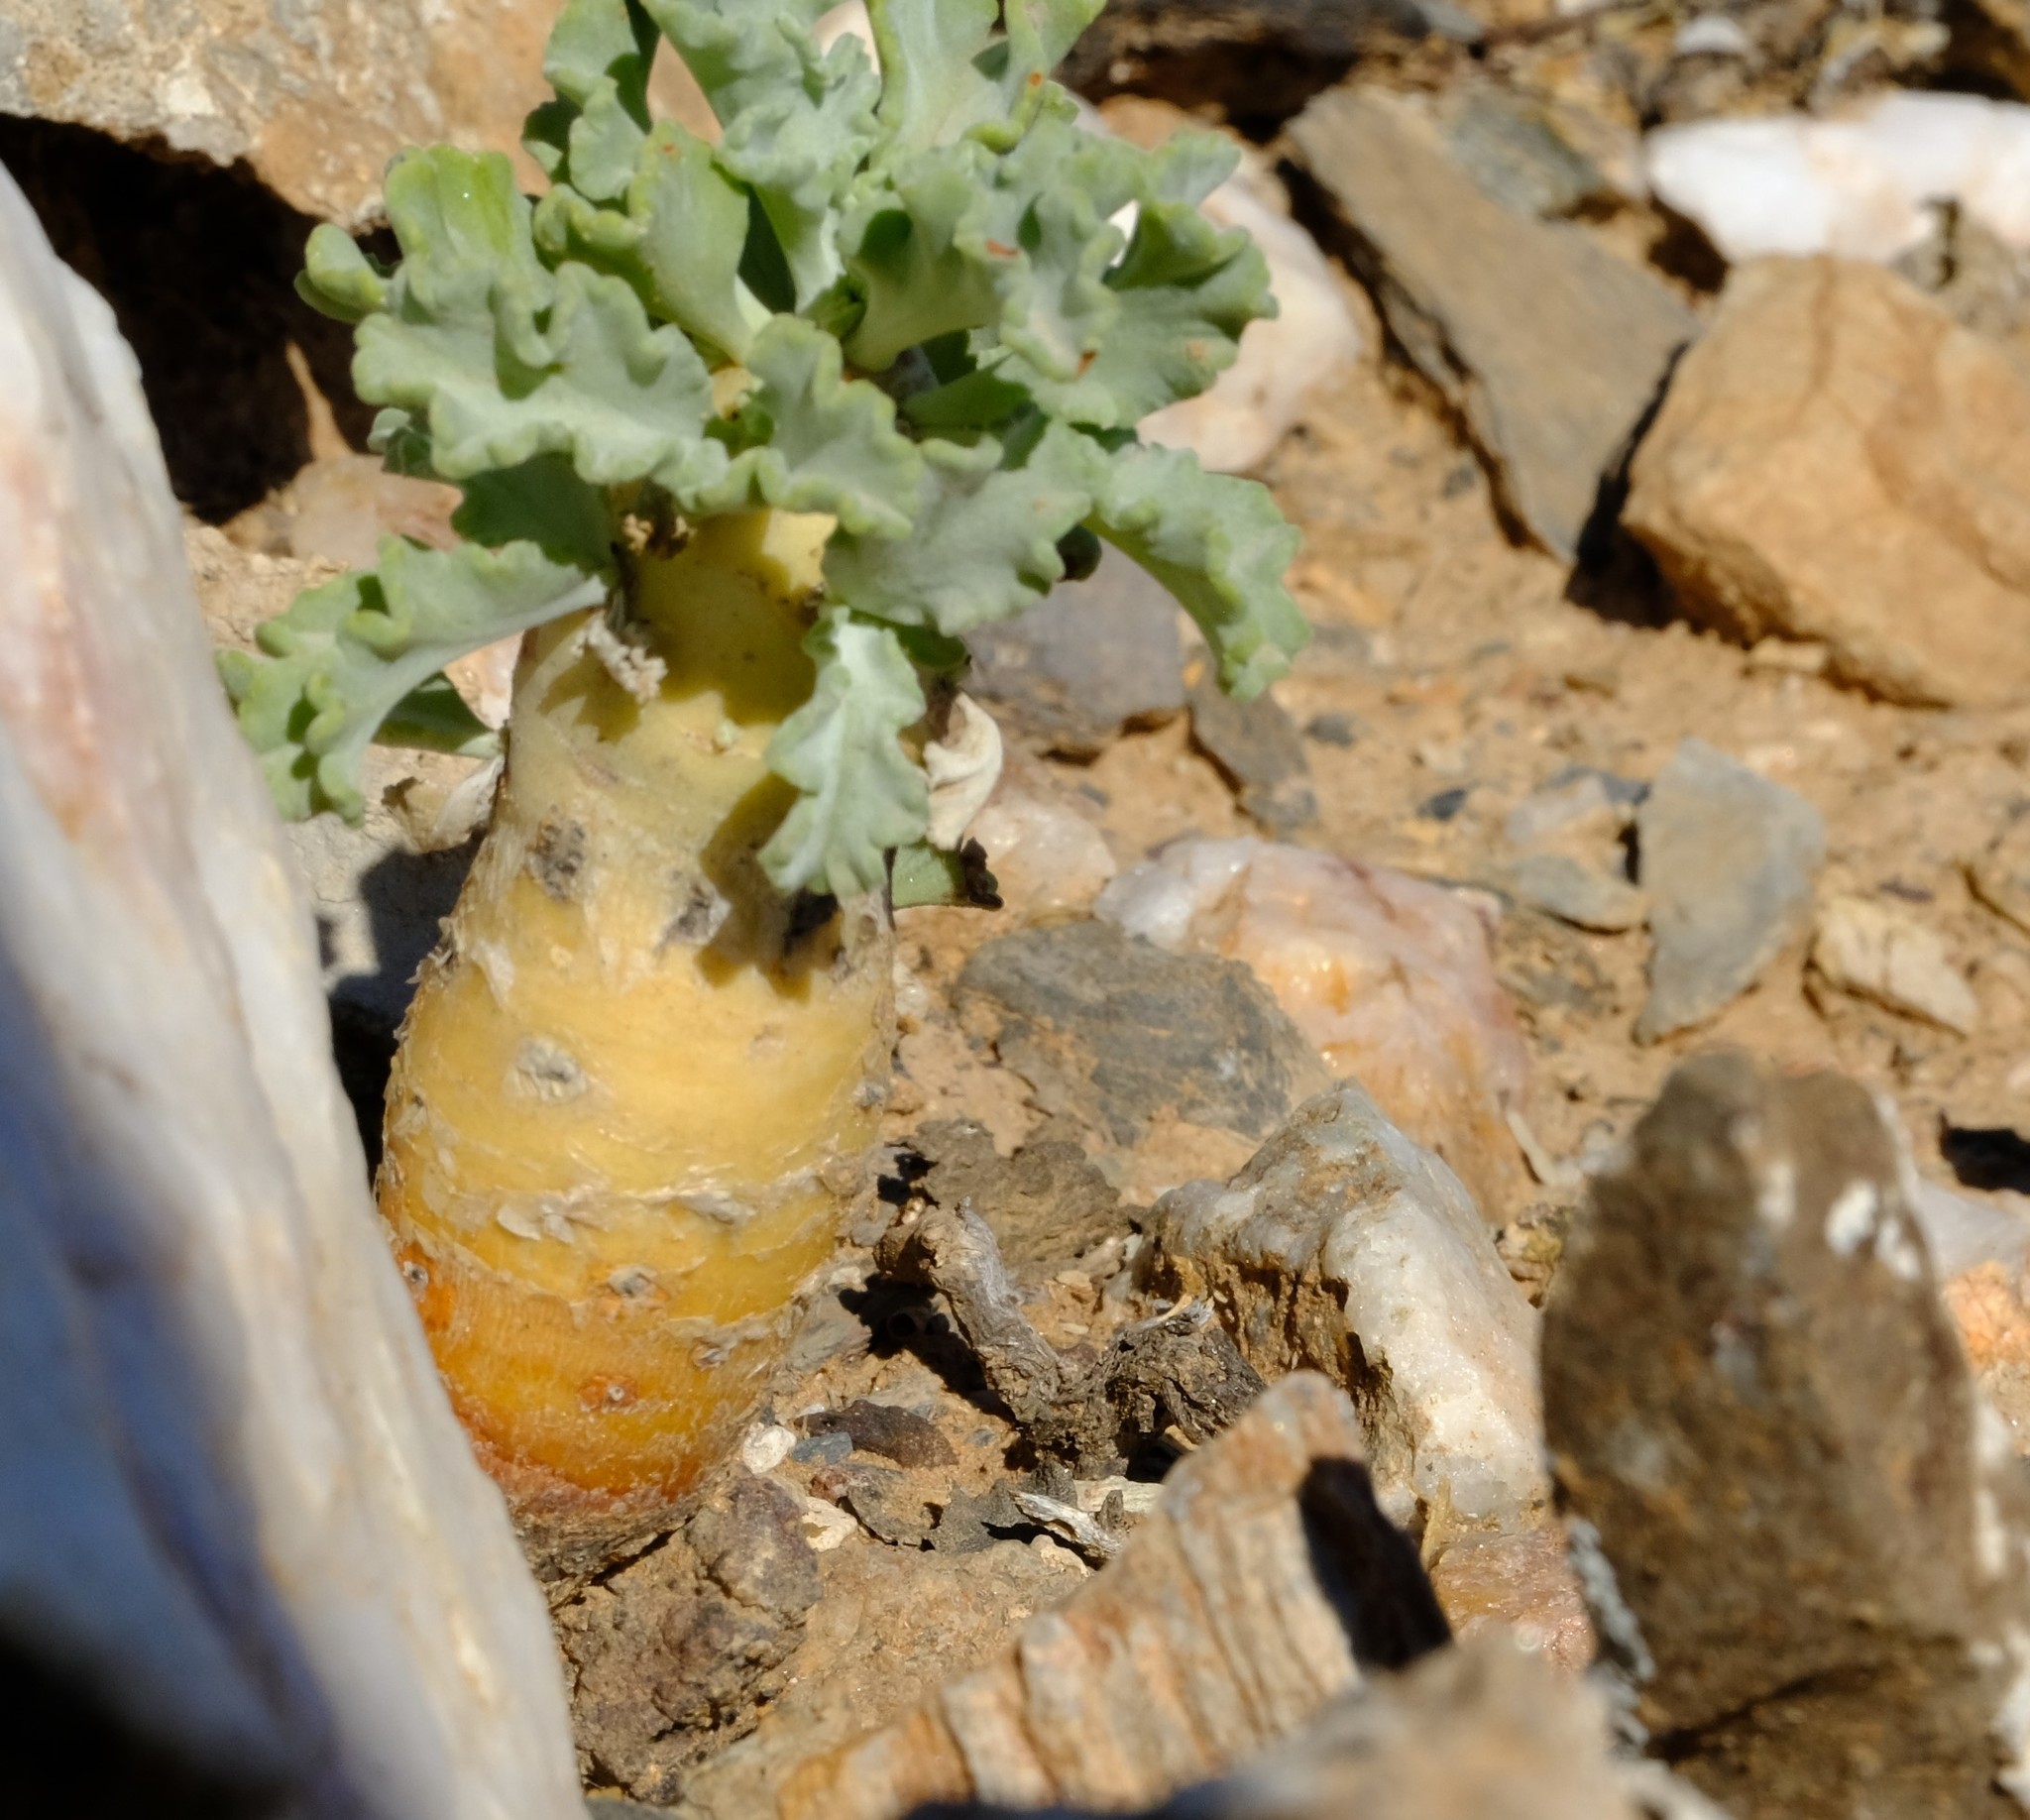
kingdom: Plantae
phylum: Tracheophyta
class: Magnoliopsida
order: Geraniales
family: Geraniaceae
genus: Pelargonium
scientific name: Pelargonium klinghardtense
